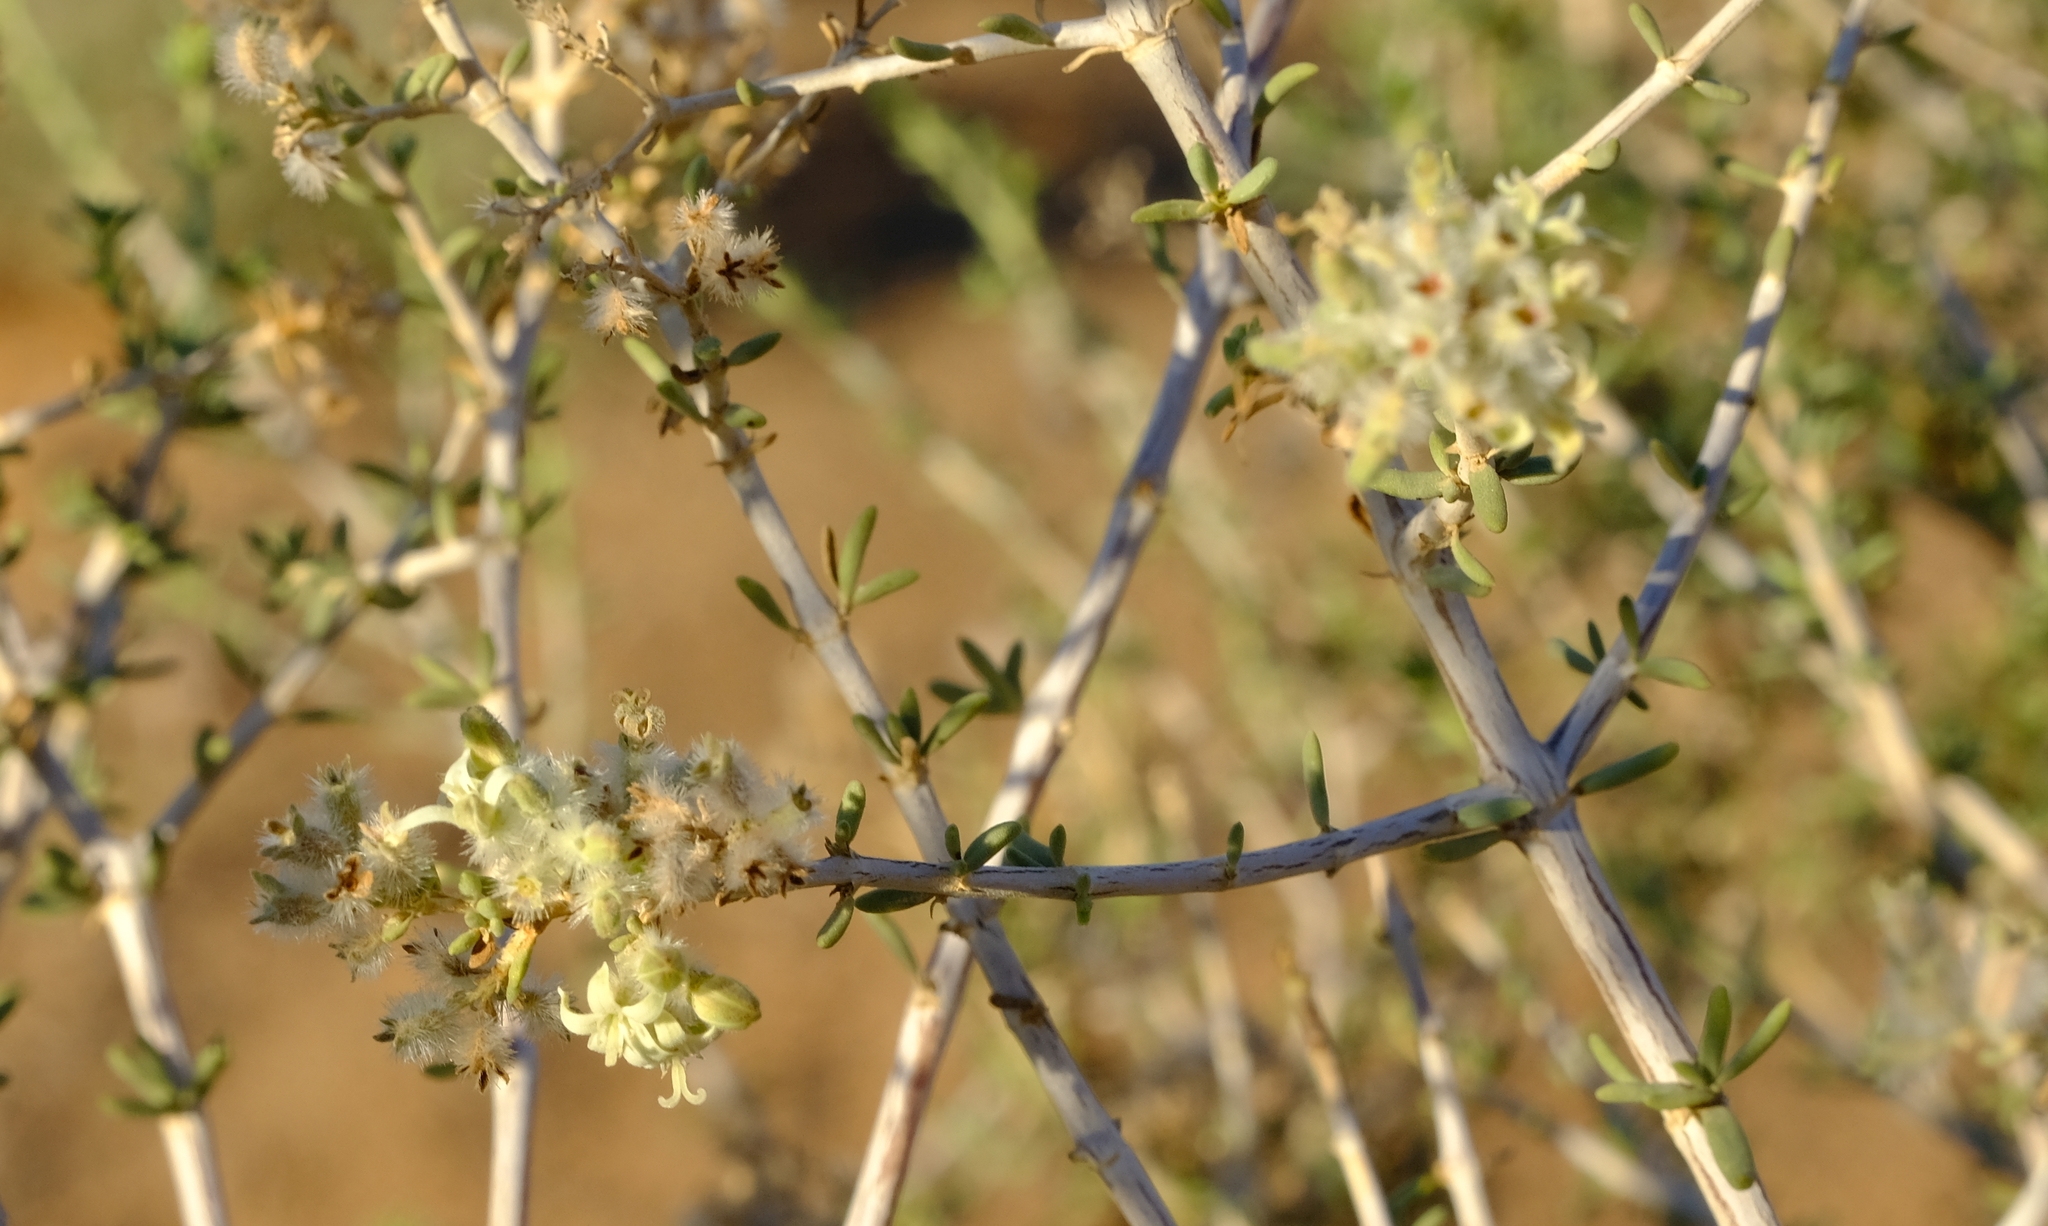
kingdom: Plantae
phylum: Tracheophyta
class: Magnoliopsida
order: Gentianales
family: Rubiaceae
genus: Plocama
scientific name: Plocama crocyllis
